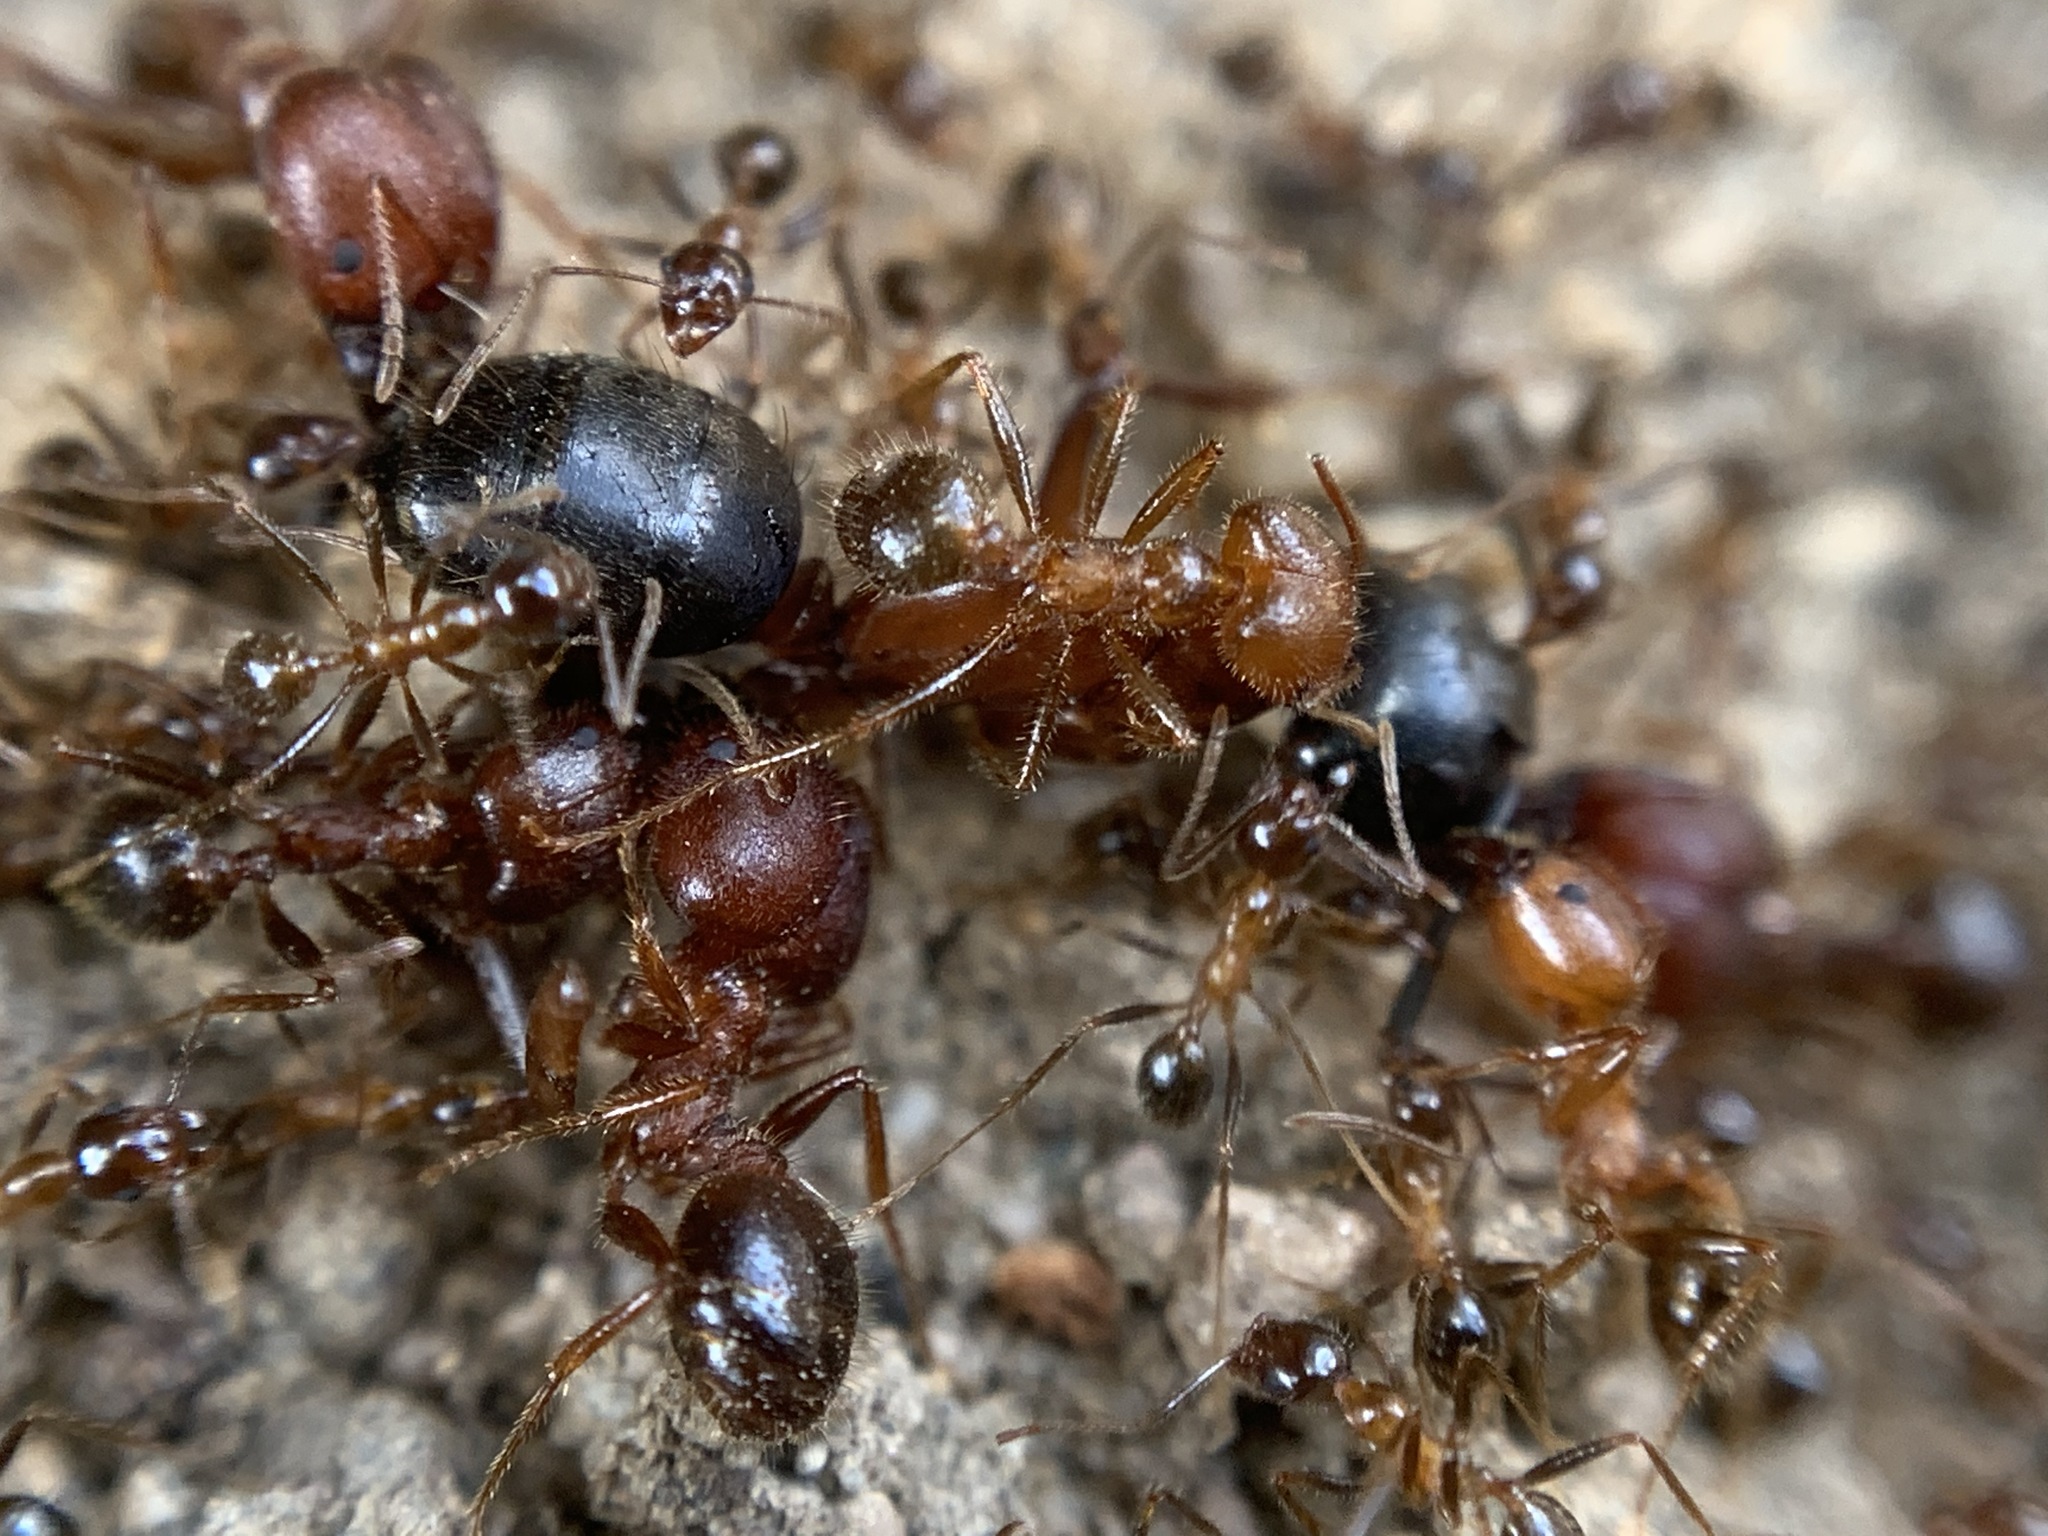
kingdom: Animalia
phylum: Arthropoda
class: Insecta
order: Hymenoptera
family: Formicidae
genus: Pheidole
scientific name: Pheidole obtusospinosa
